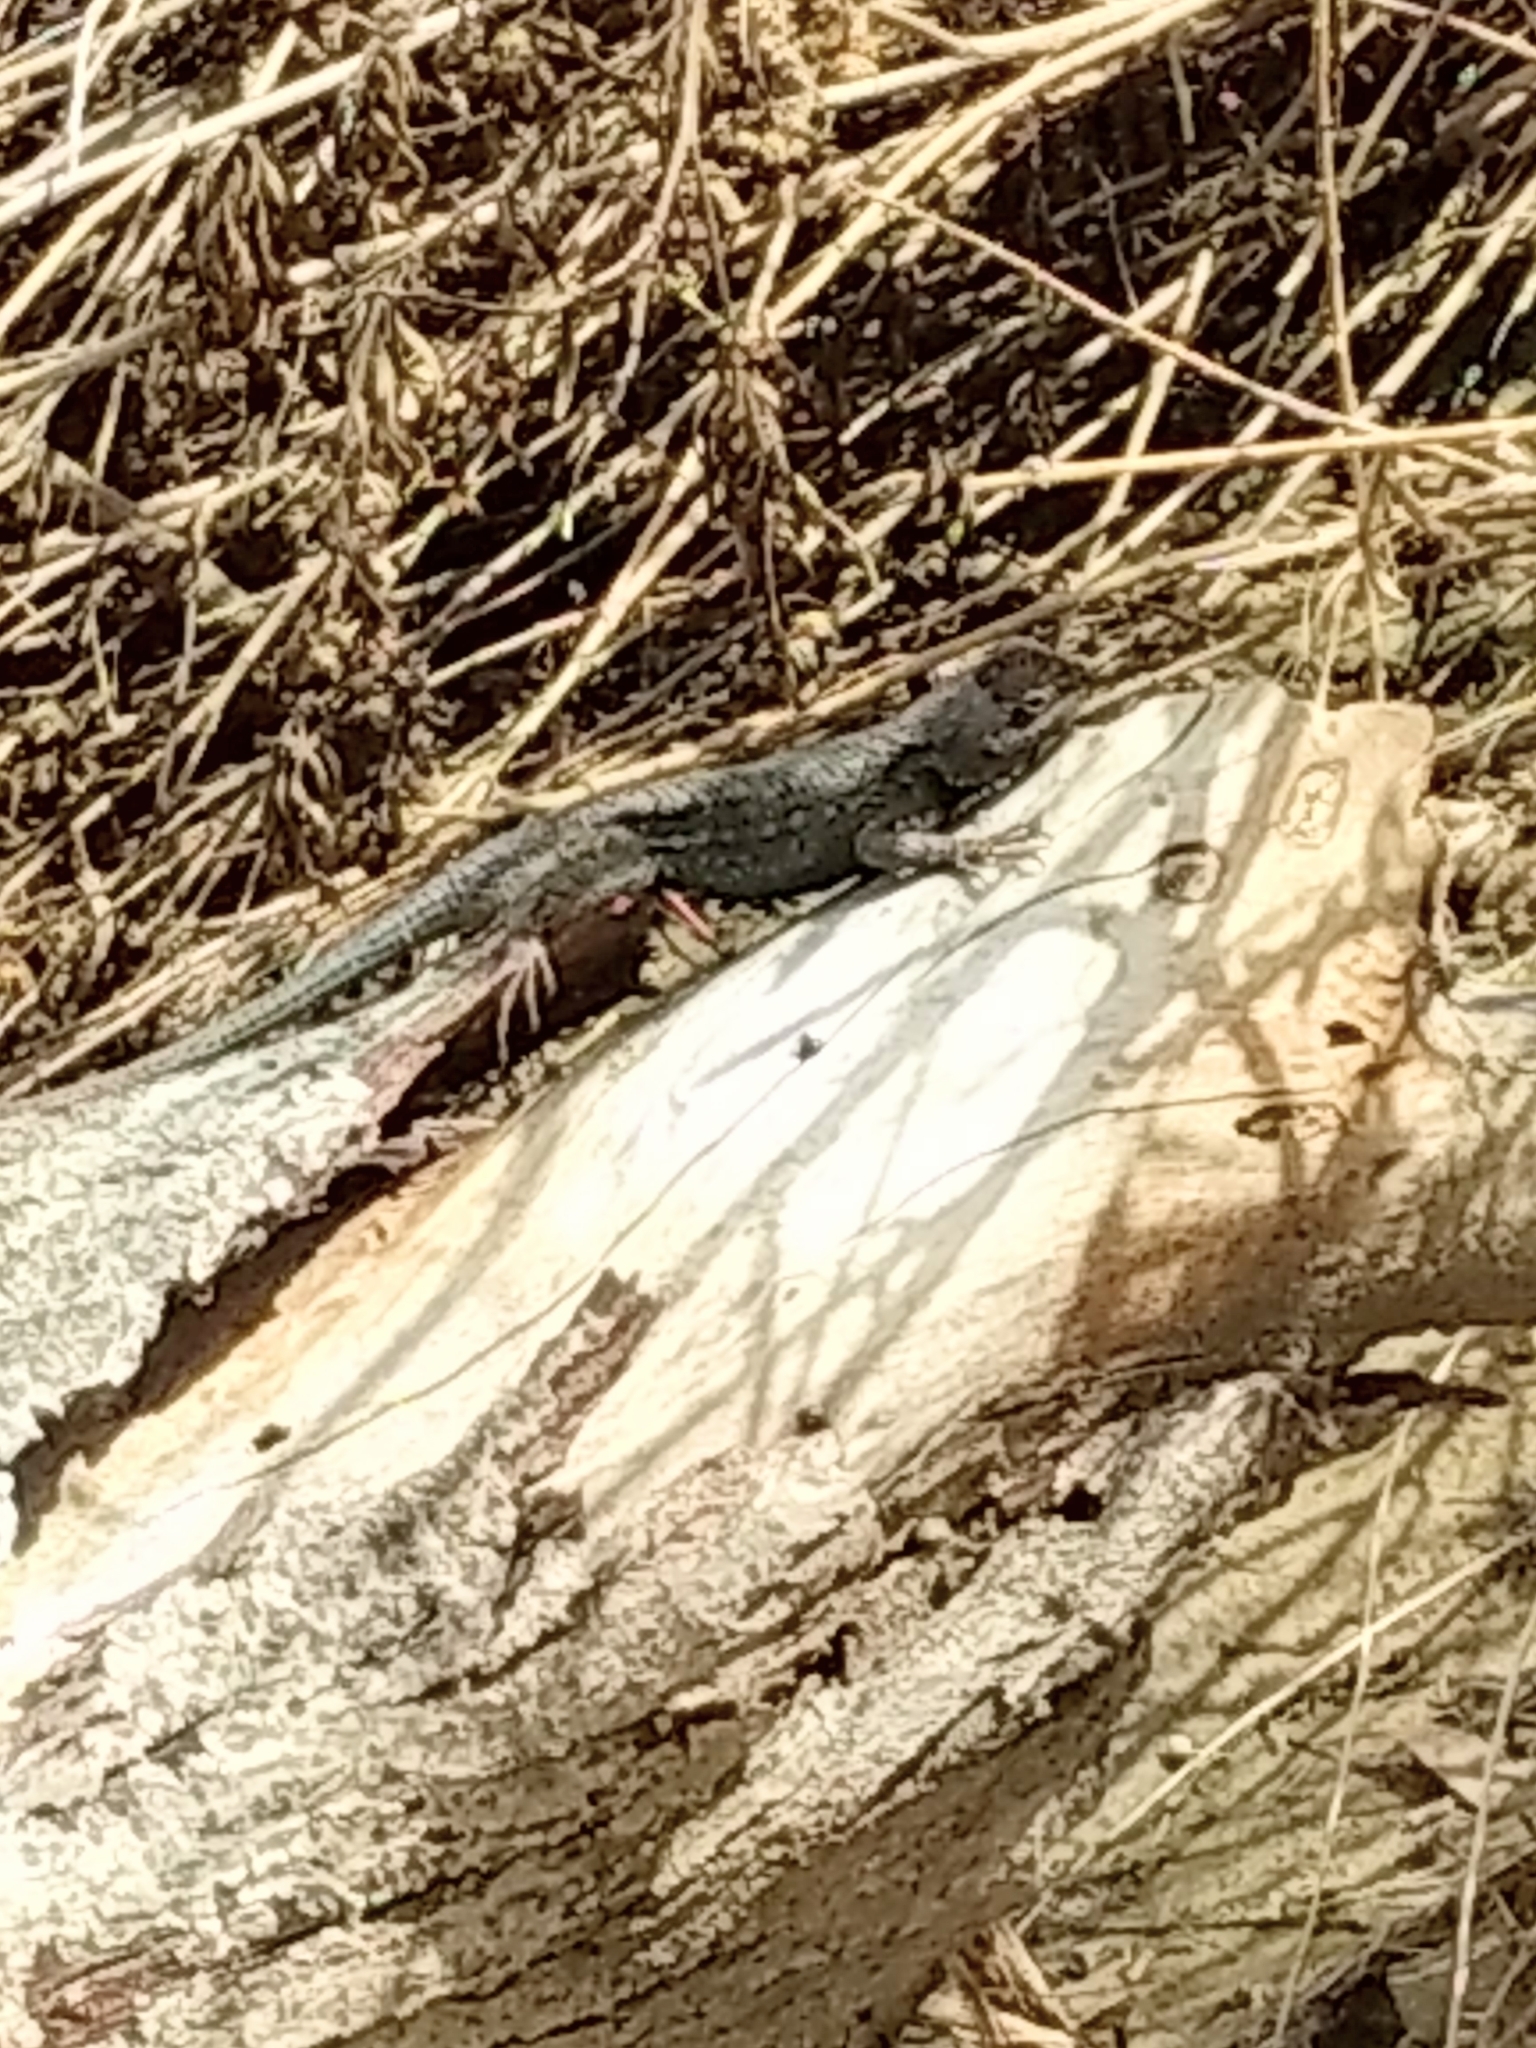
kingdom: Animalia
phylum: Chordata
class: Squamata
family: Phrynosomatidae
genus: Sceloporus
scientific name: Sceloporus occidentalis
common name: Western fence lizard
